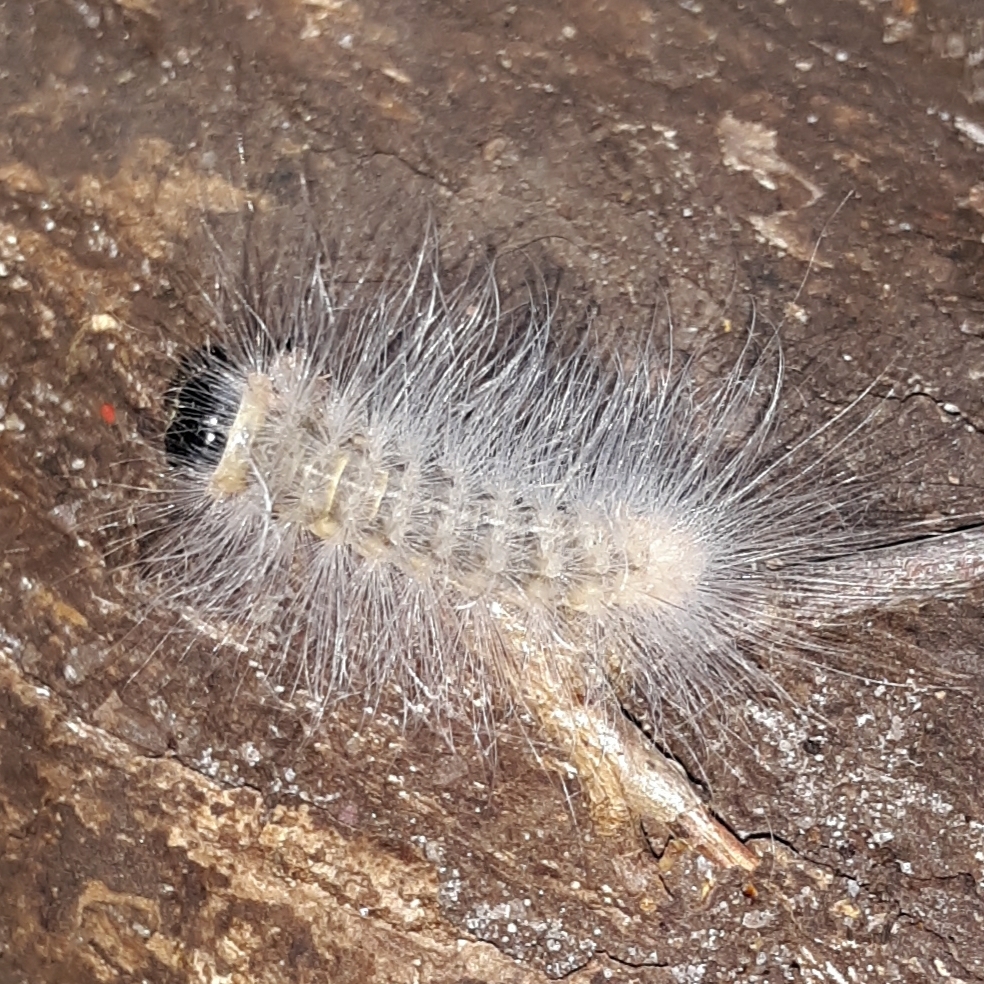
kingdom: Animalia
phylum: Arthropoda
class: Insecta
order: Lepidoptera
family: Noctuidae
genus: Charadra
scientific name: Charadra deridens
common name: Marbled tuffet
